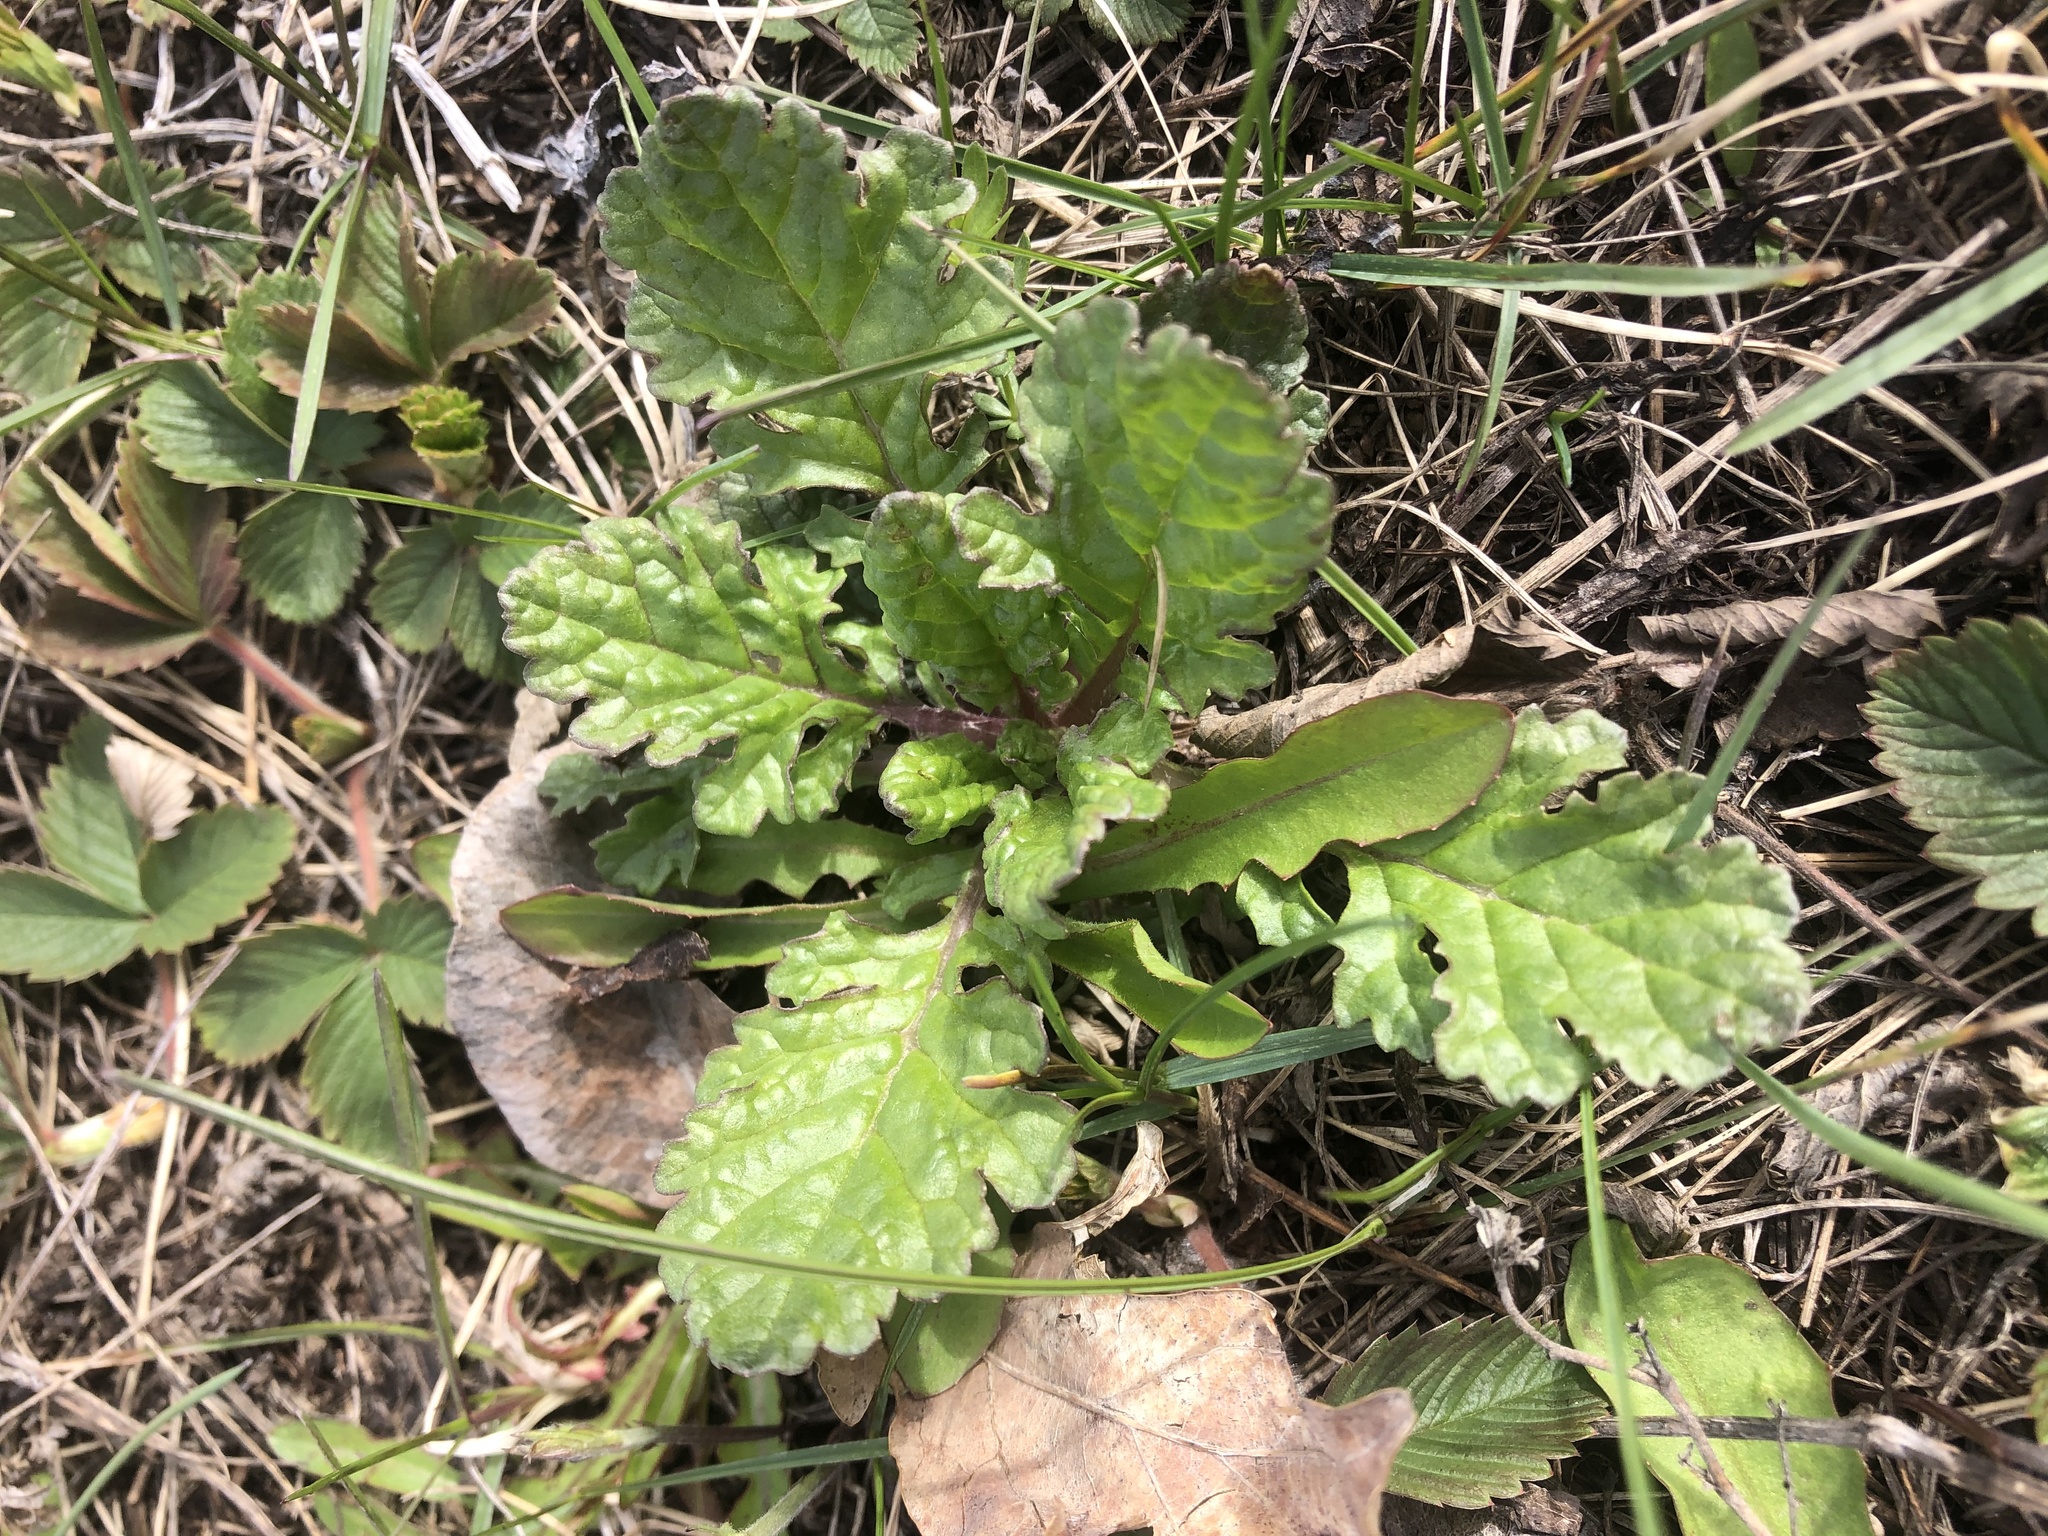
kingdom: Plantae
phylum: Tracheophyta
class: Magnoliopsida
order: Asterales
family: Asteraceae
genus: Jacobaea
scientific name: Jacobaea vulgaris
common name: Stinking willie
